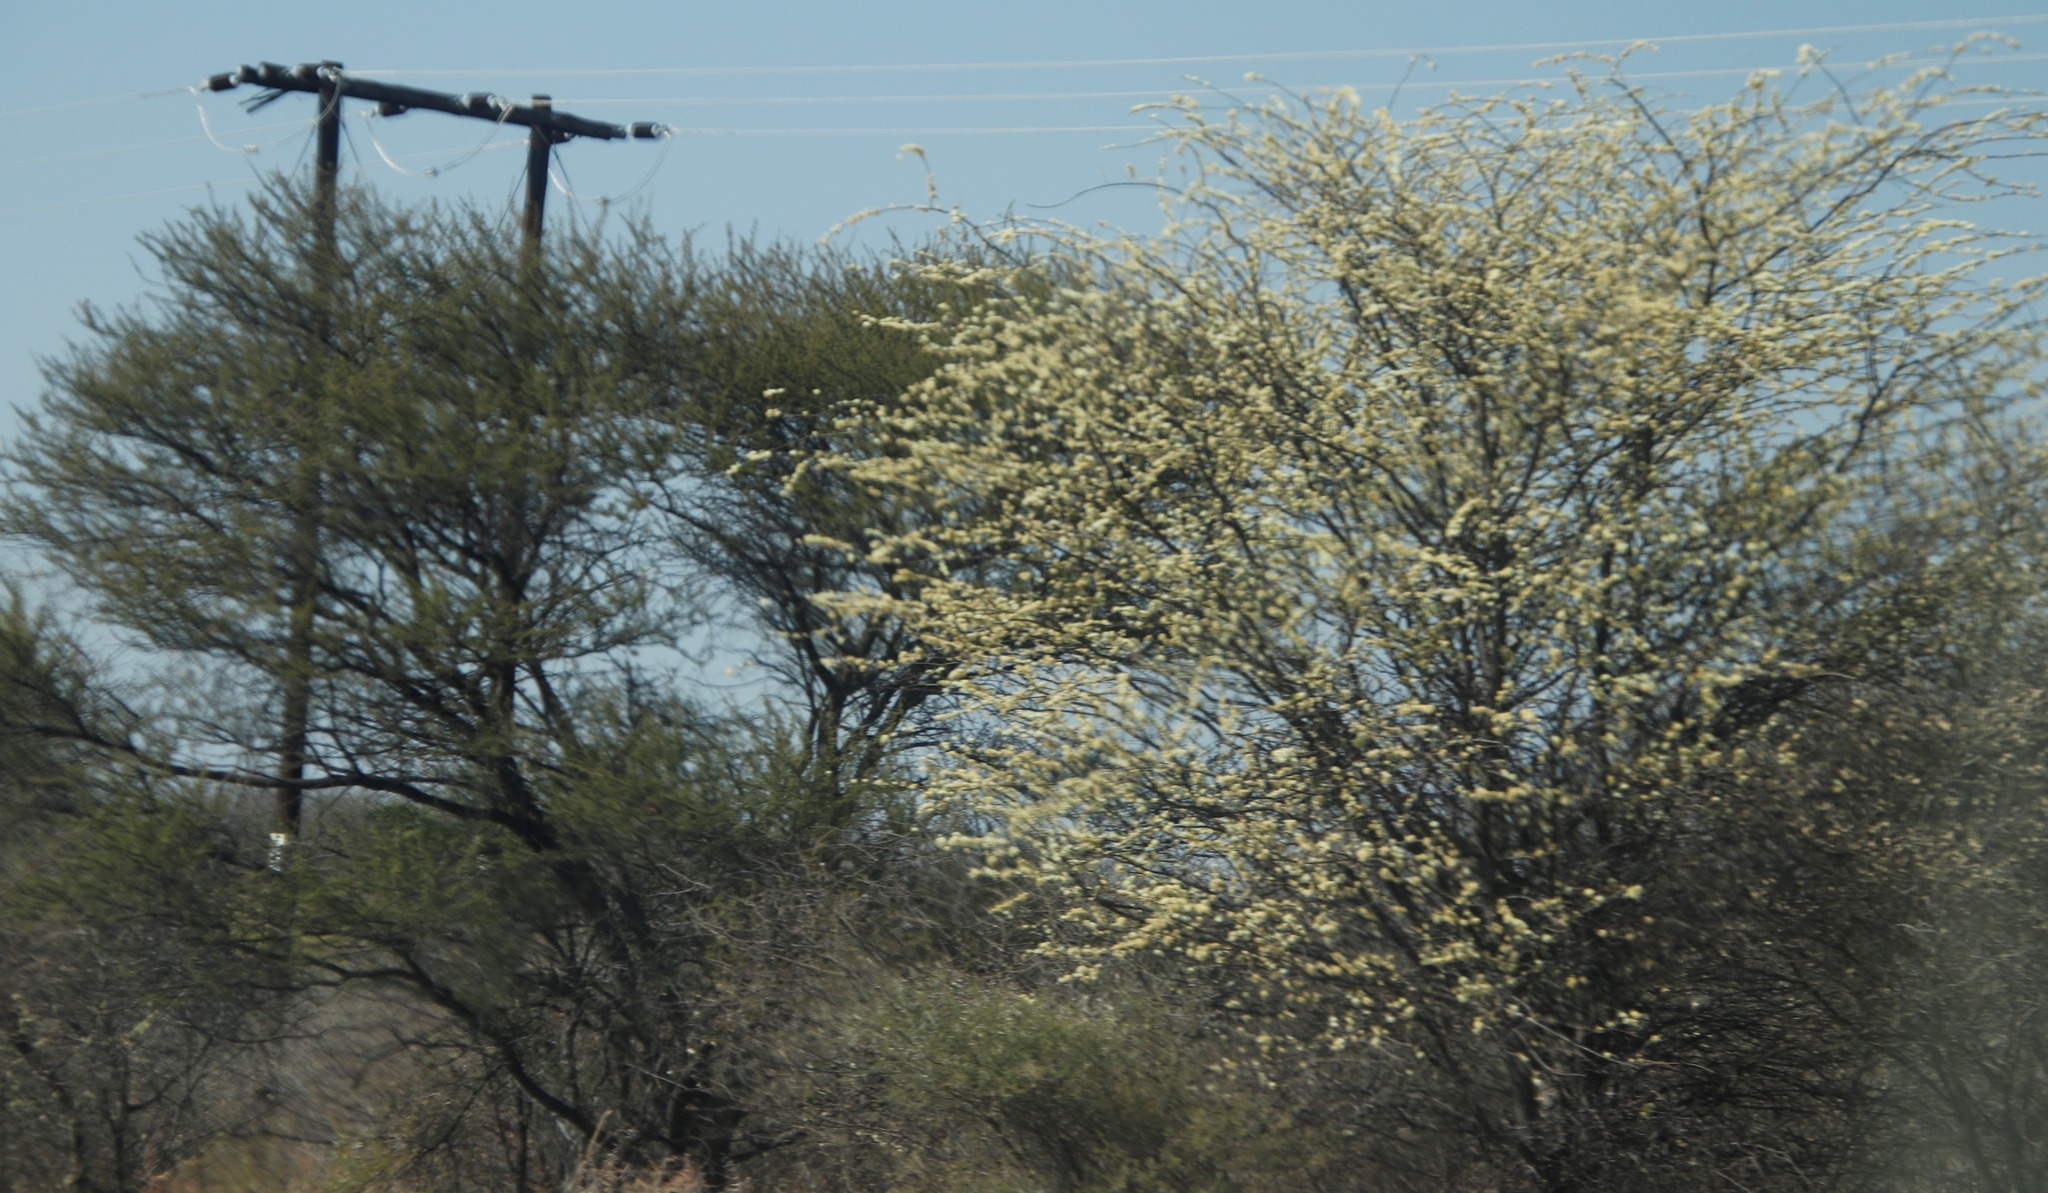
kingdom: Plantae
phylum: Tracheophyta
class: Magnoliopsida
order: Fabales
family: Fabaceae
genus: Senegalia
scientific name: Senegalia mellifera
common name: Hookthorn
